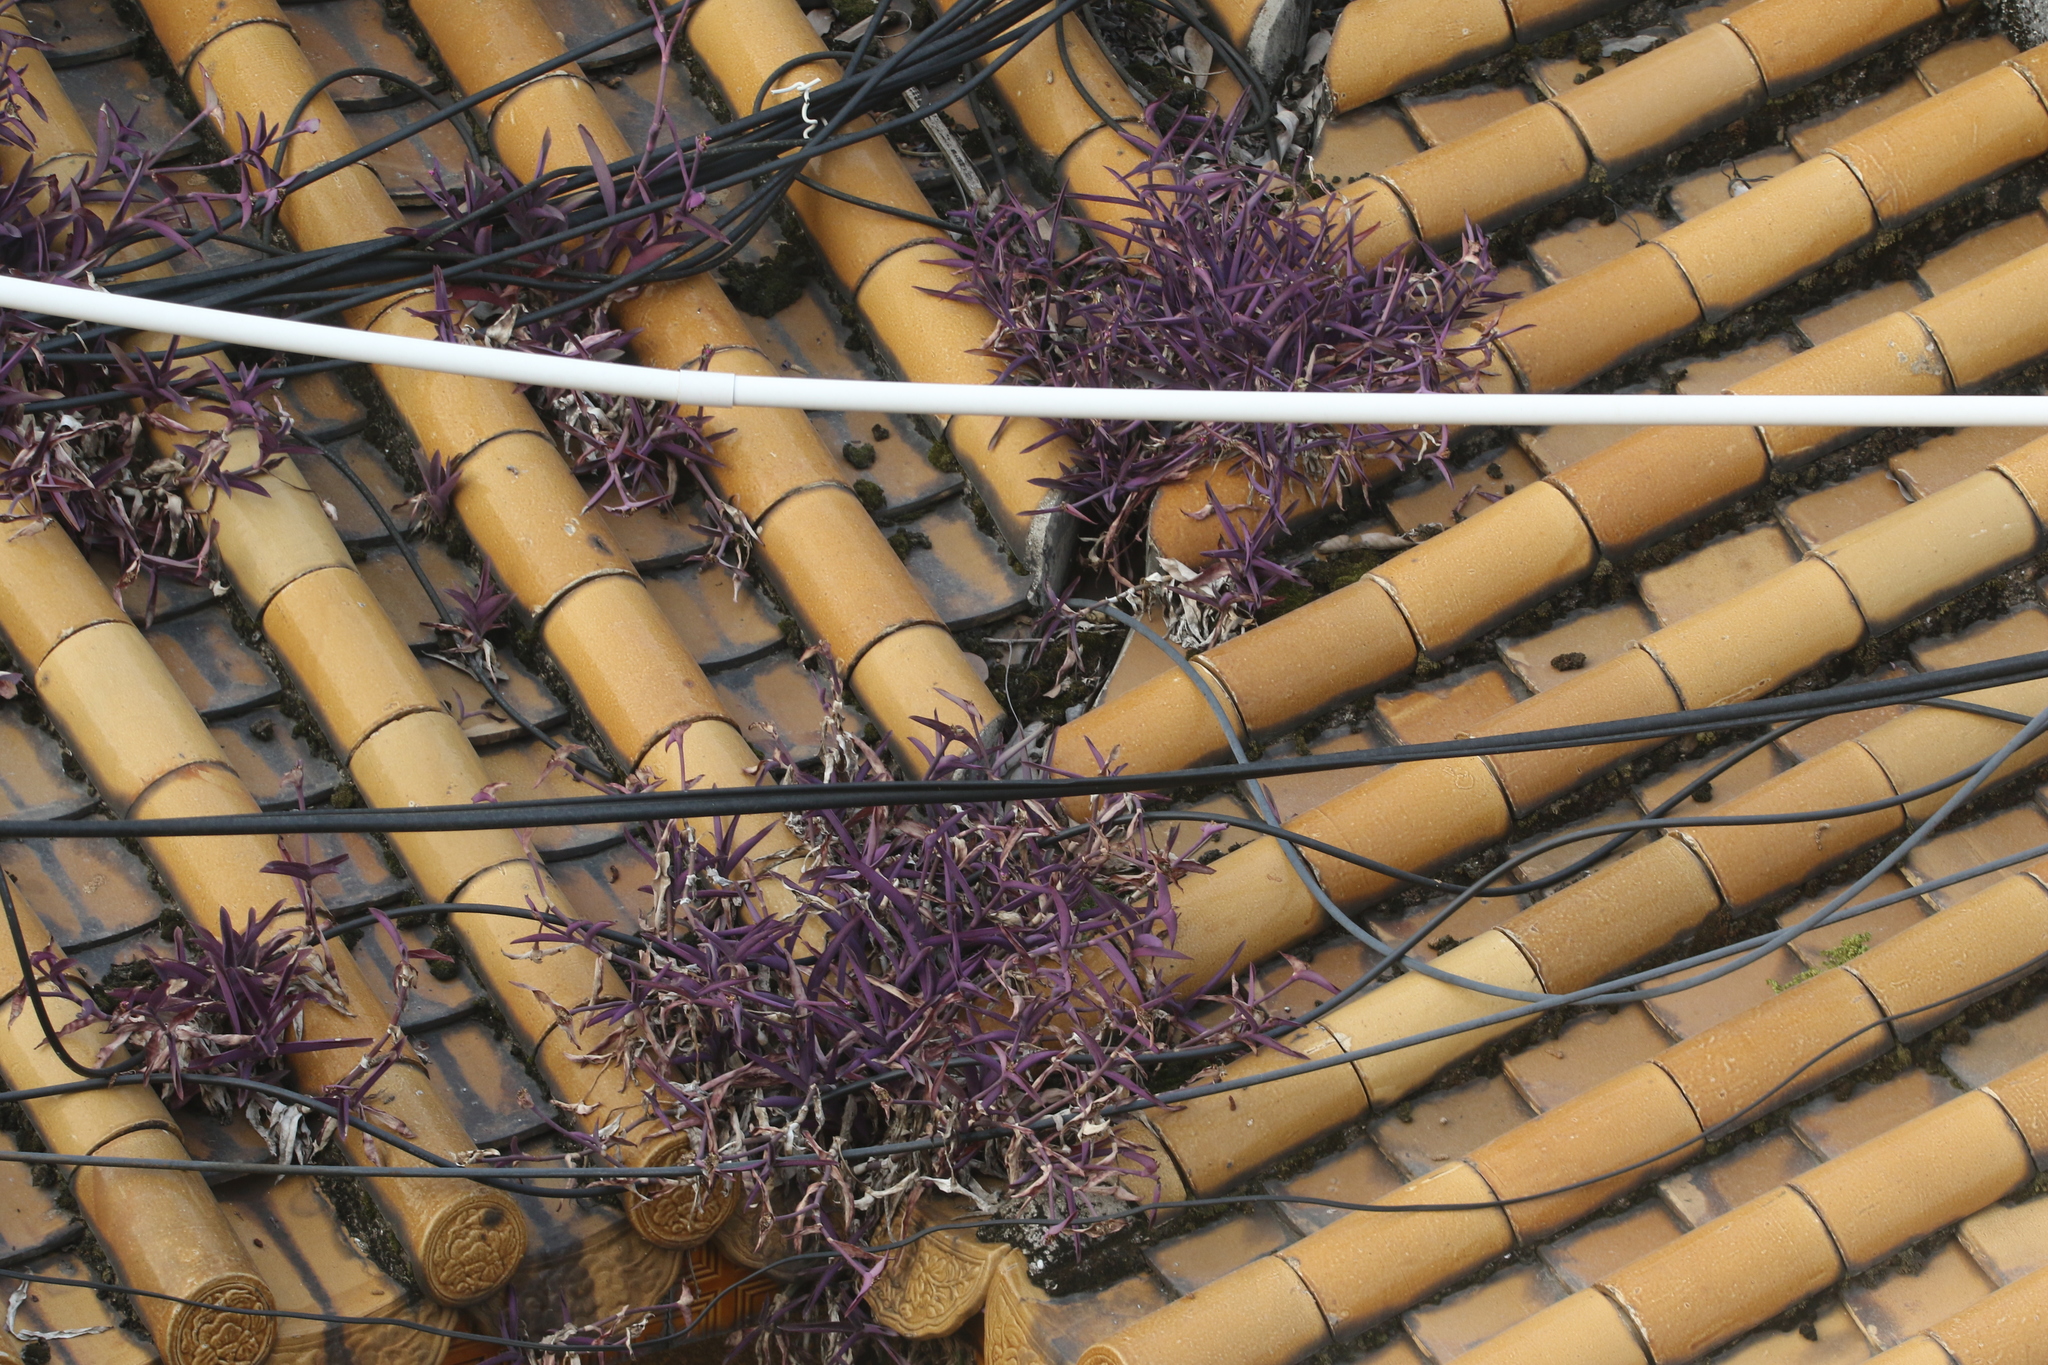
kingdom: Plantae
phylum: Tracheophyta
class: Liliopsida
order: Commelinales
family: Commelinaceae
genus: Tradescantia
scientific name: Tradescantia pallida
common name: Purpleheart
